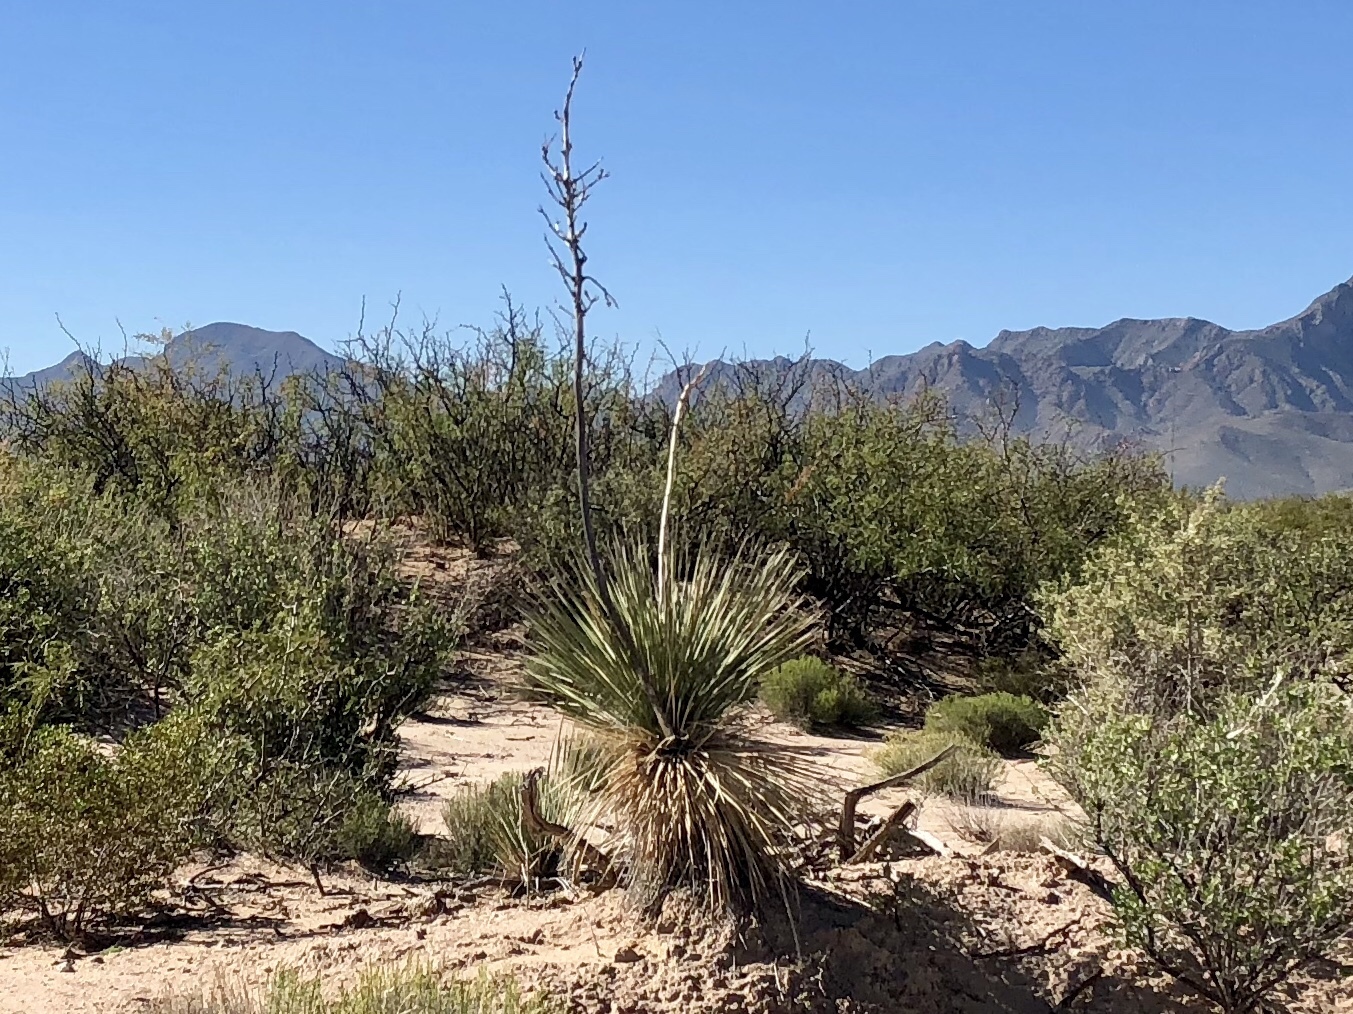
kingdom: Plantae
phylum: Tracheophyta
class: Liliopsida
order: Asparagales
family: Asparagaceae
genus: Yucca
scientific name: Yucca elata
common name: Palmella
